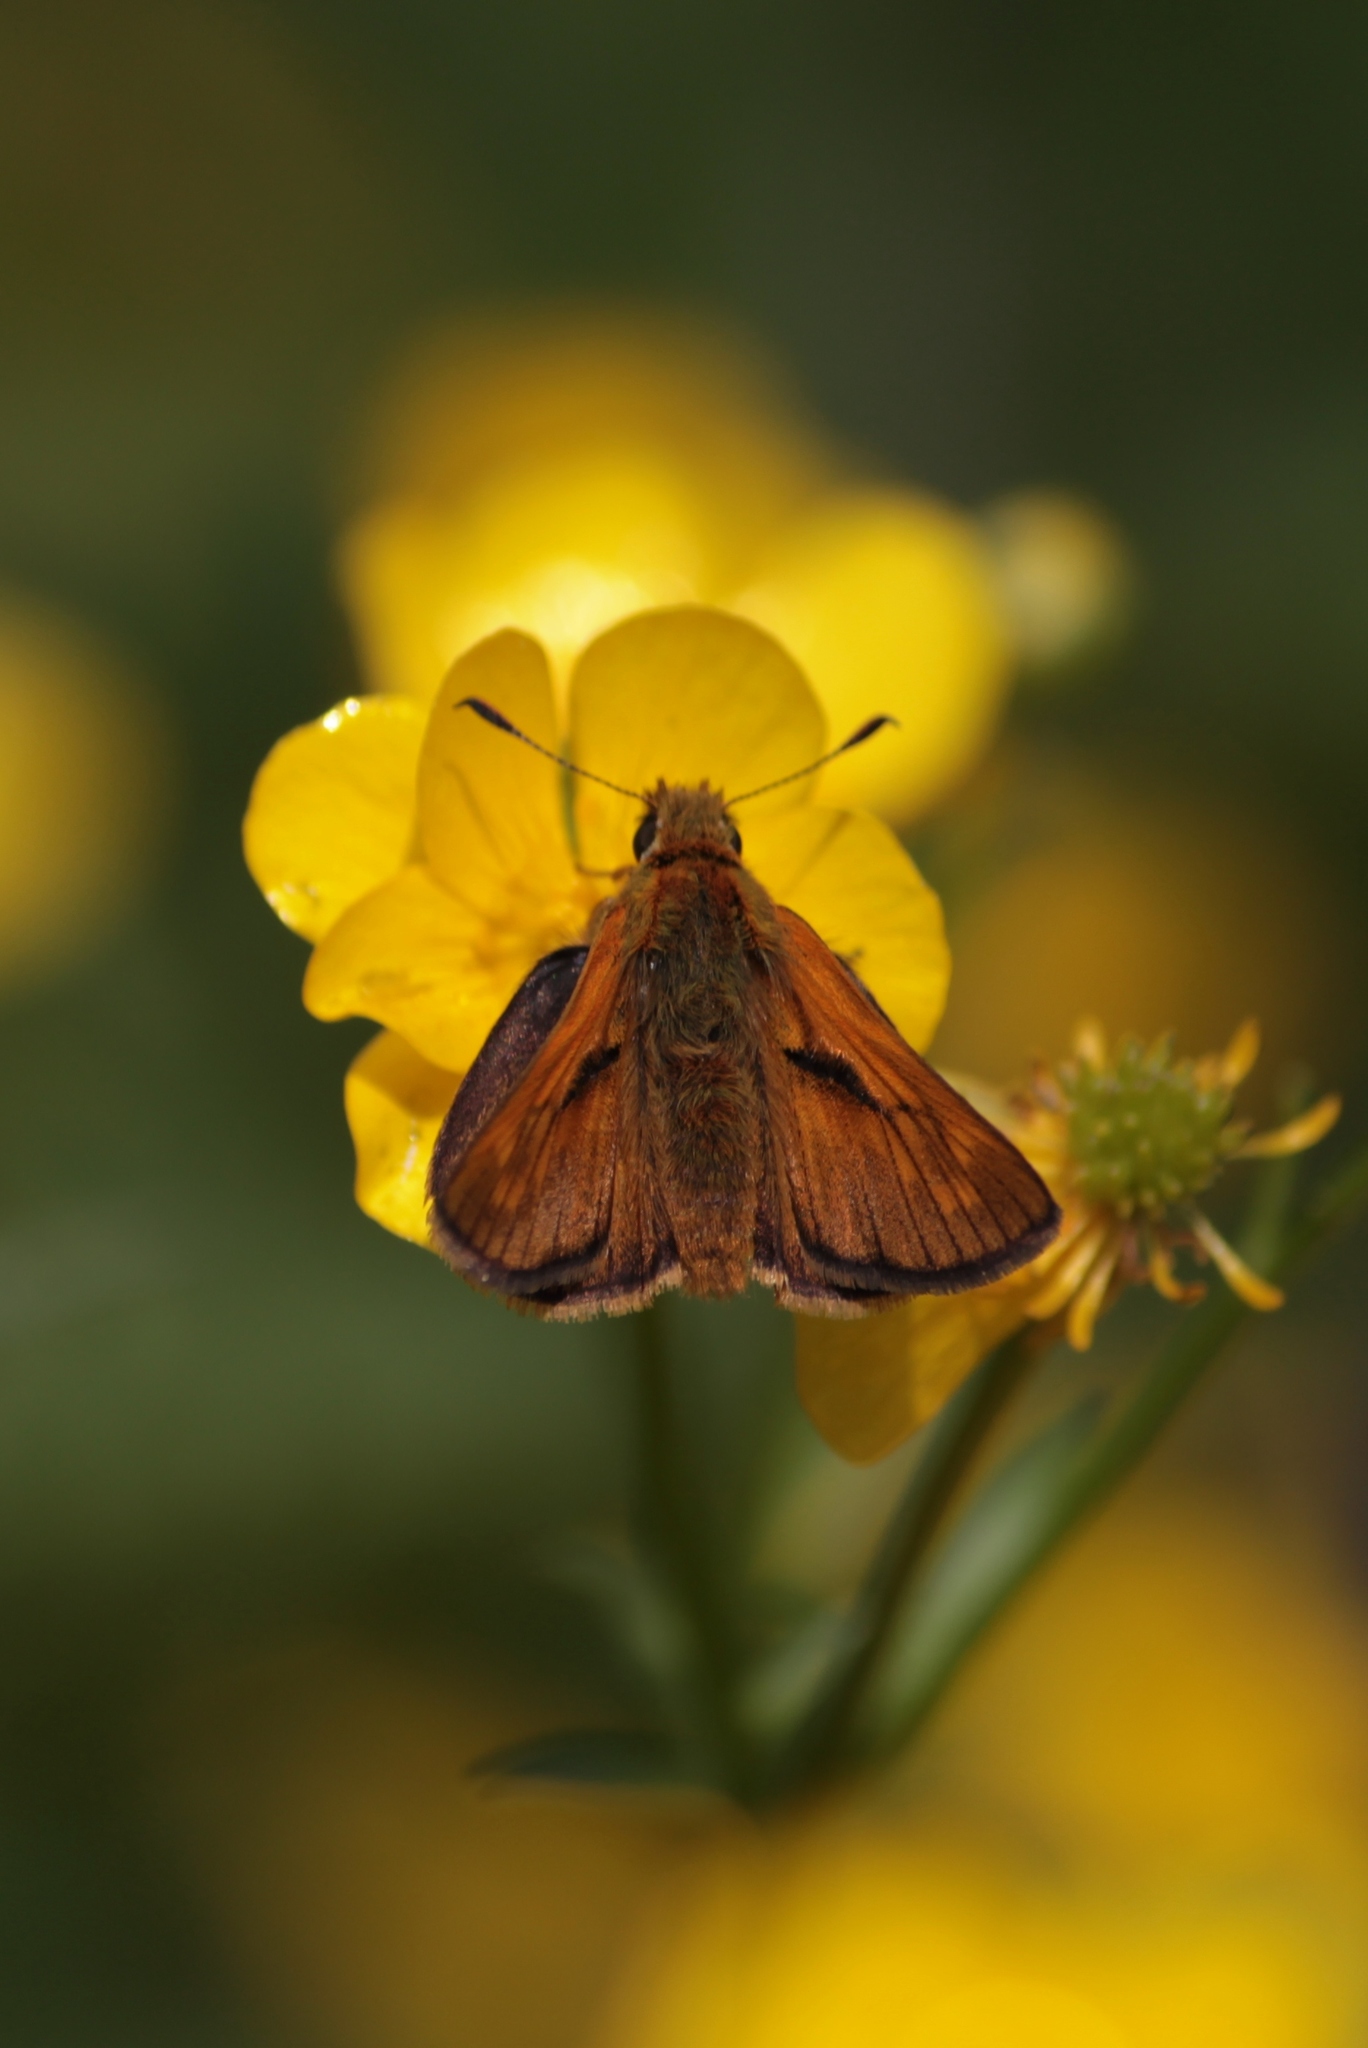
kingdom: Animalia
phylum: Arthropoda
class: Insecta
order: Lepidoptera
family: Hesperiidae
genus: Ochlodes
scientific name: Ochlodes venata
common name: Large skipper
